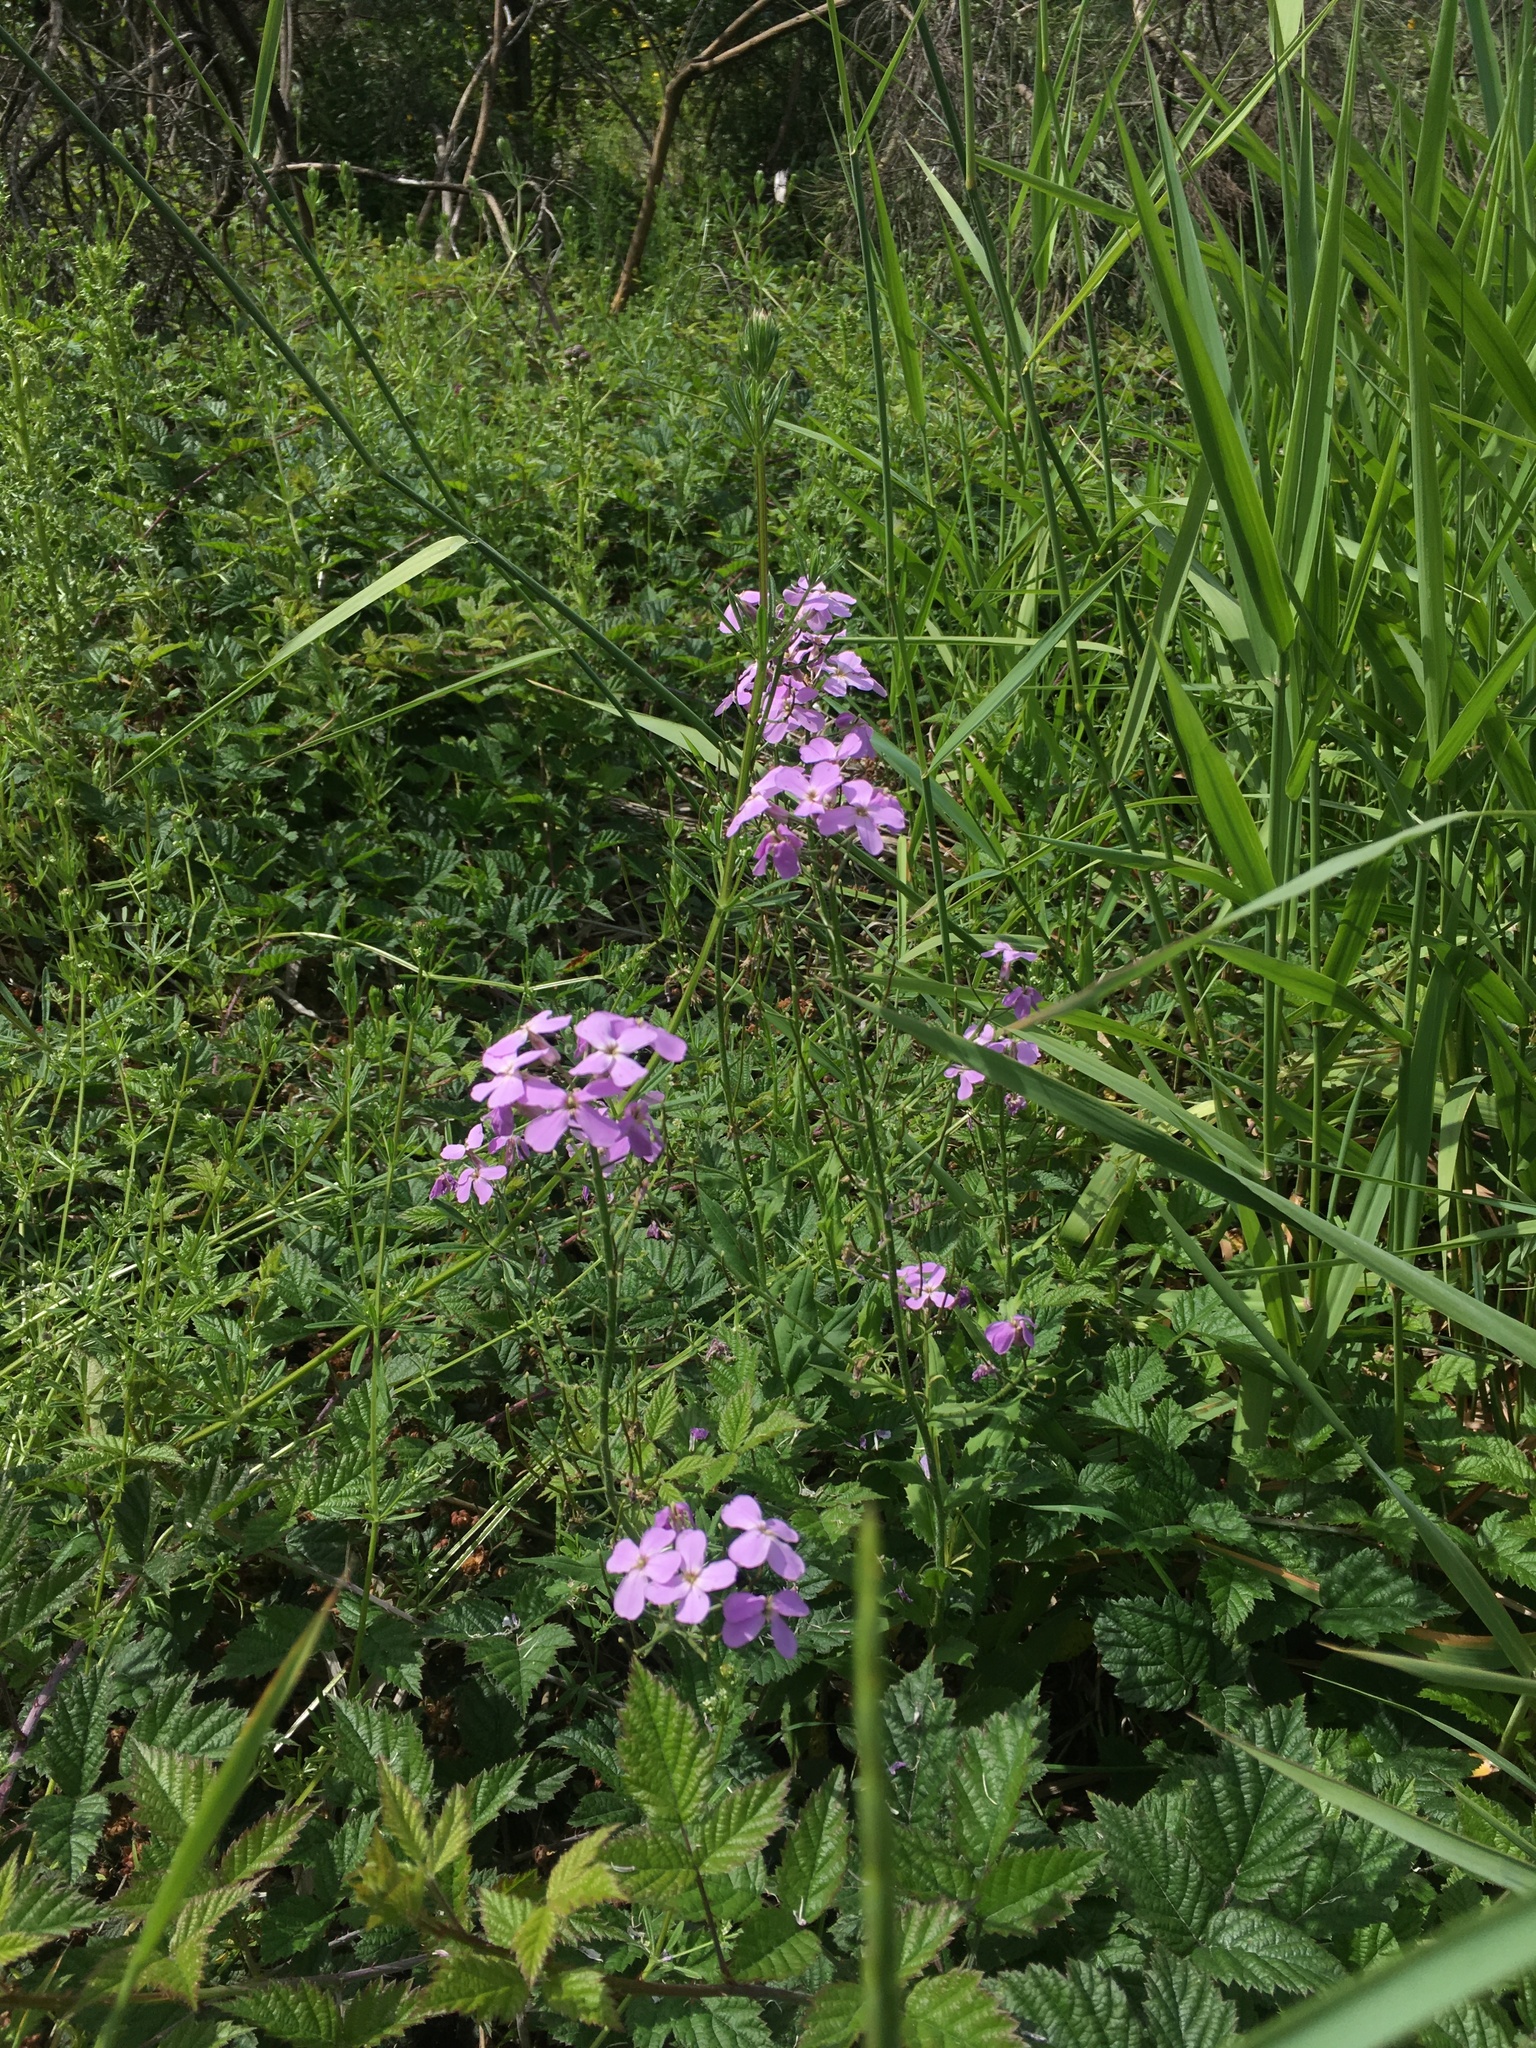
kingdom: Plantae
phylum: Tracheophyta
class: Magnoliopsida
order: Brassicales
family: Brassicaceae
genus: Hesperis
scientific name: Hesperis matronalis
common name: Dame's-violet
